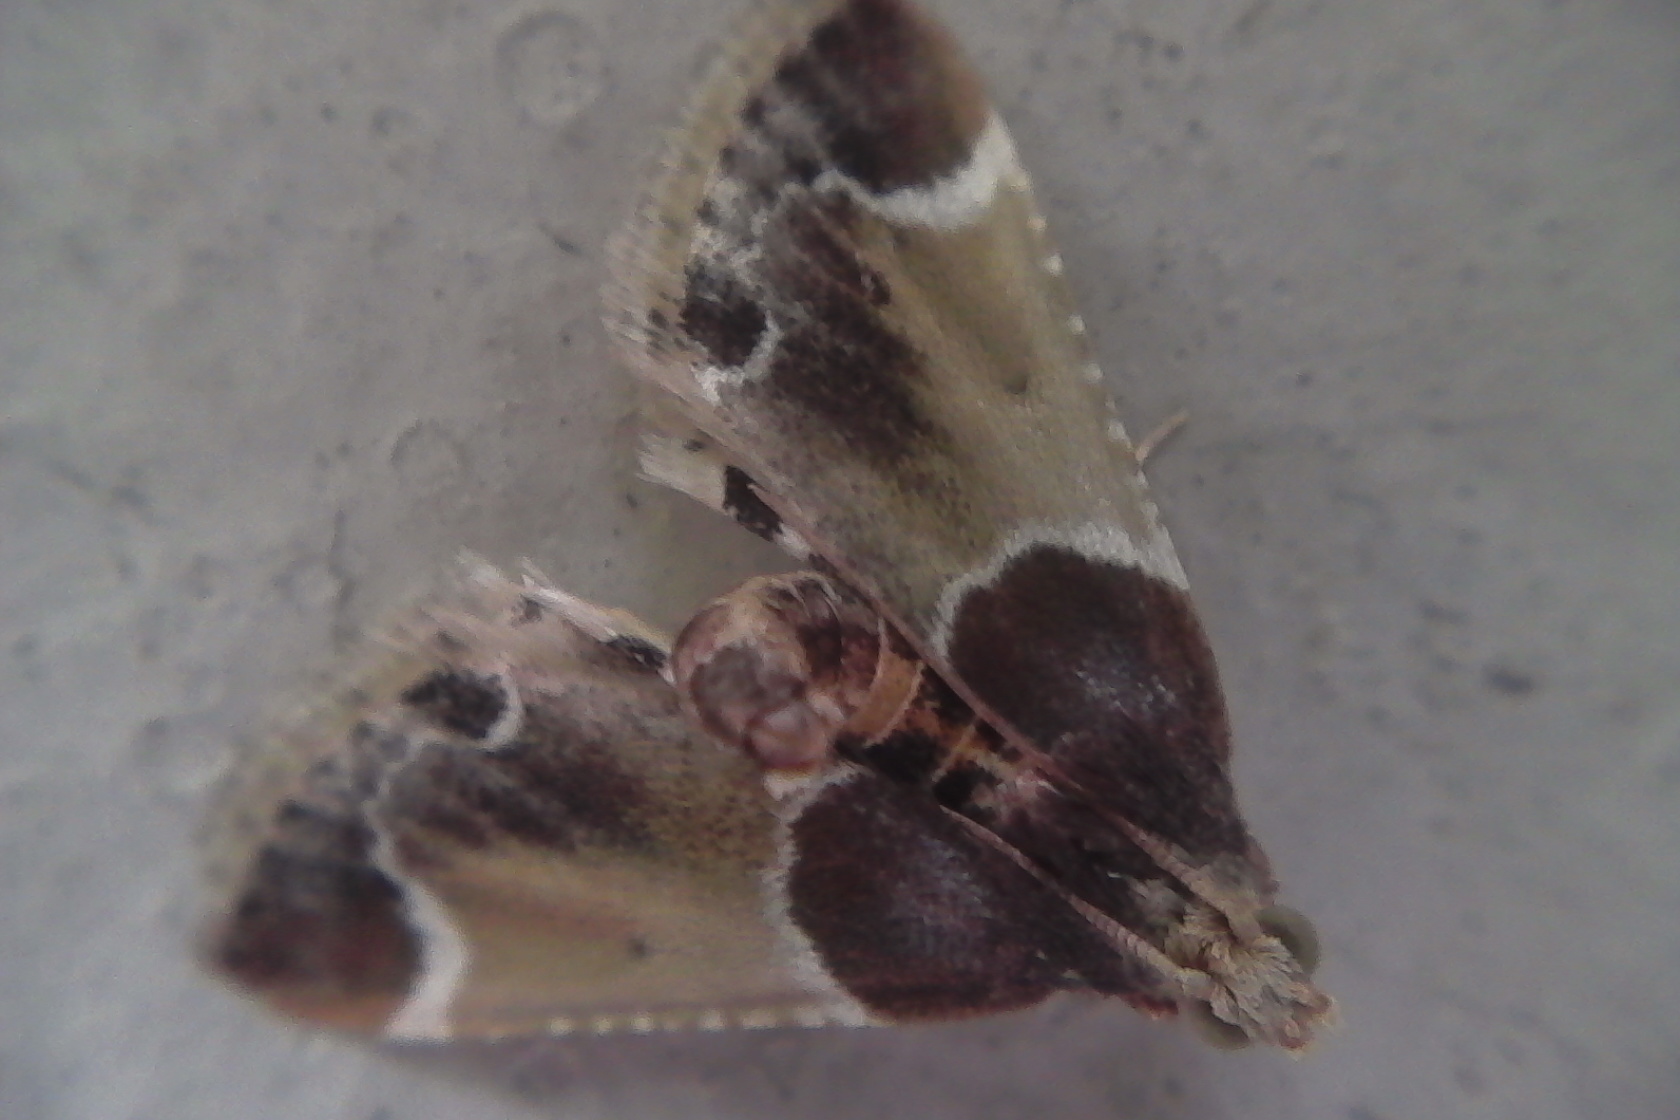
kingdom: Animalia
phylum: Arthropoda
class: Insecta
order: Lepidoptera
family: Pyralidae
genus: Pyralis
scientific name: Pyralis farinalis
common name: Meal moth
